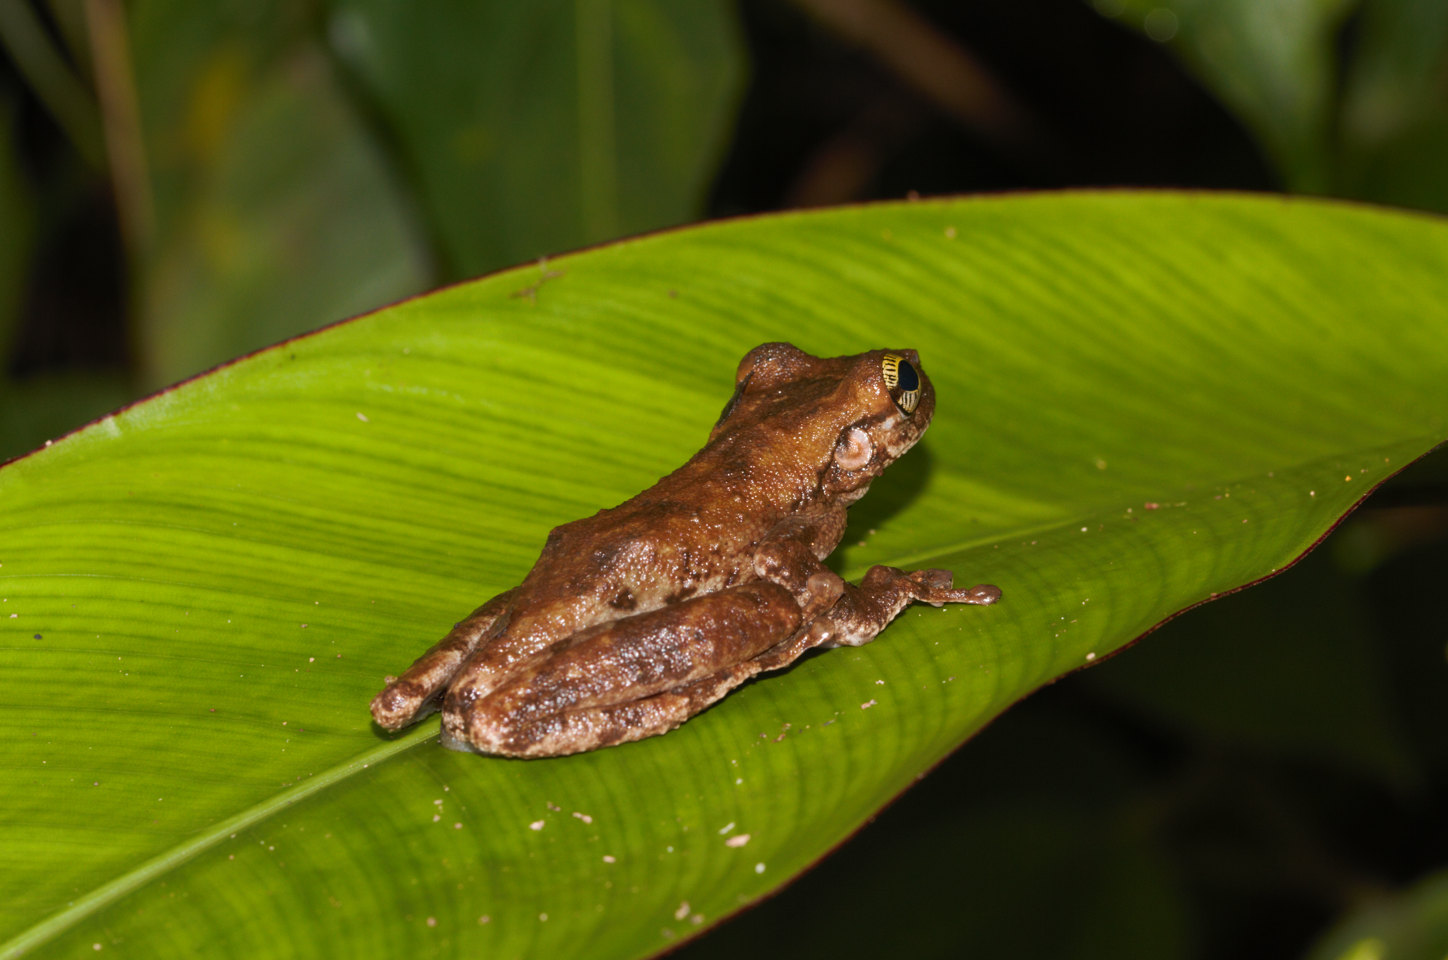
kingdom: Animalia
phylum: Chordata
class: Amphibia
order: Anura
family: Hylidae
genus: Osteocephalus
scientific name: Osteocephalus taurinus
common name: Manaus slender-legged treefrog
